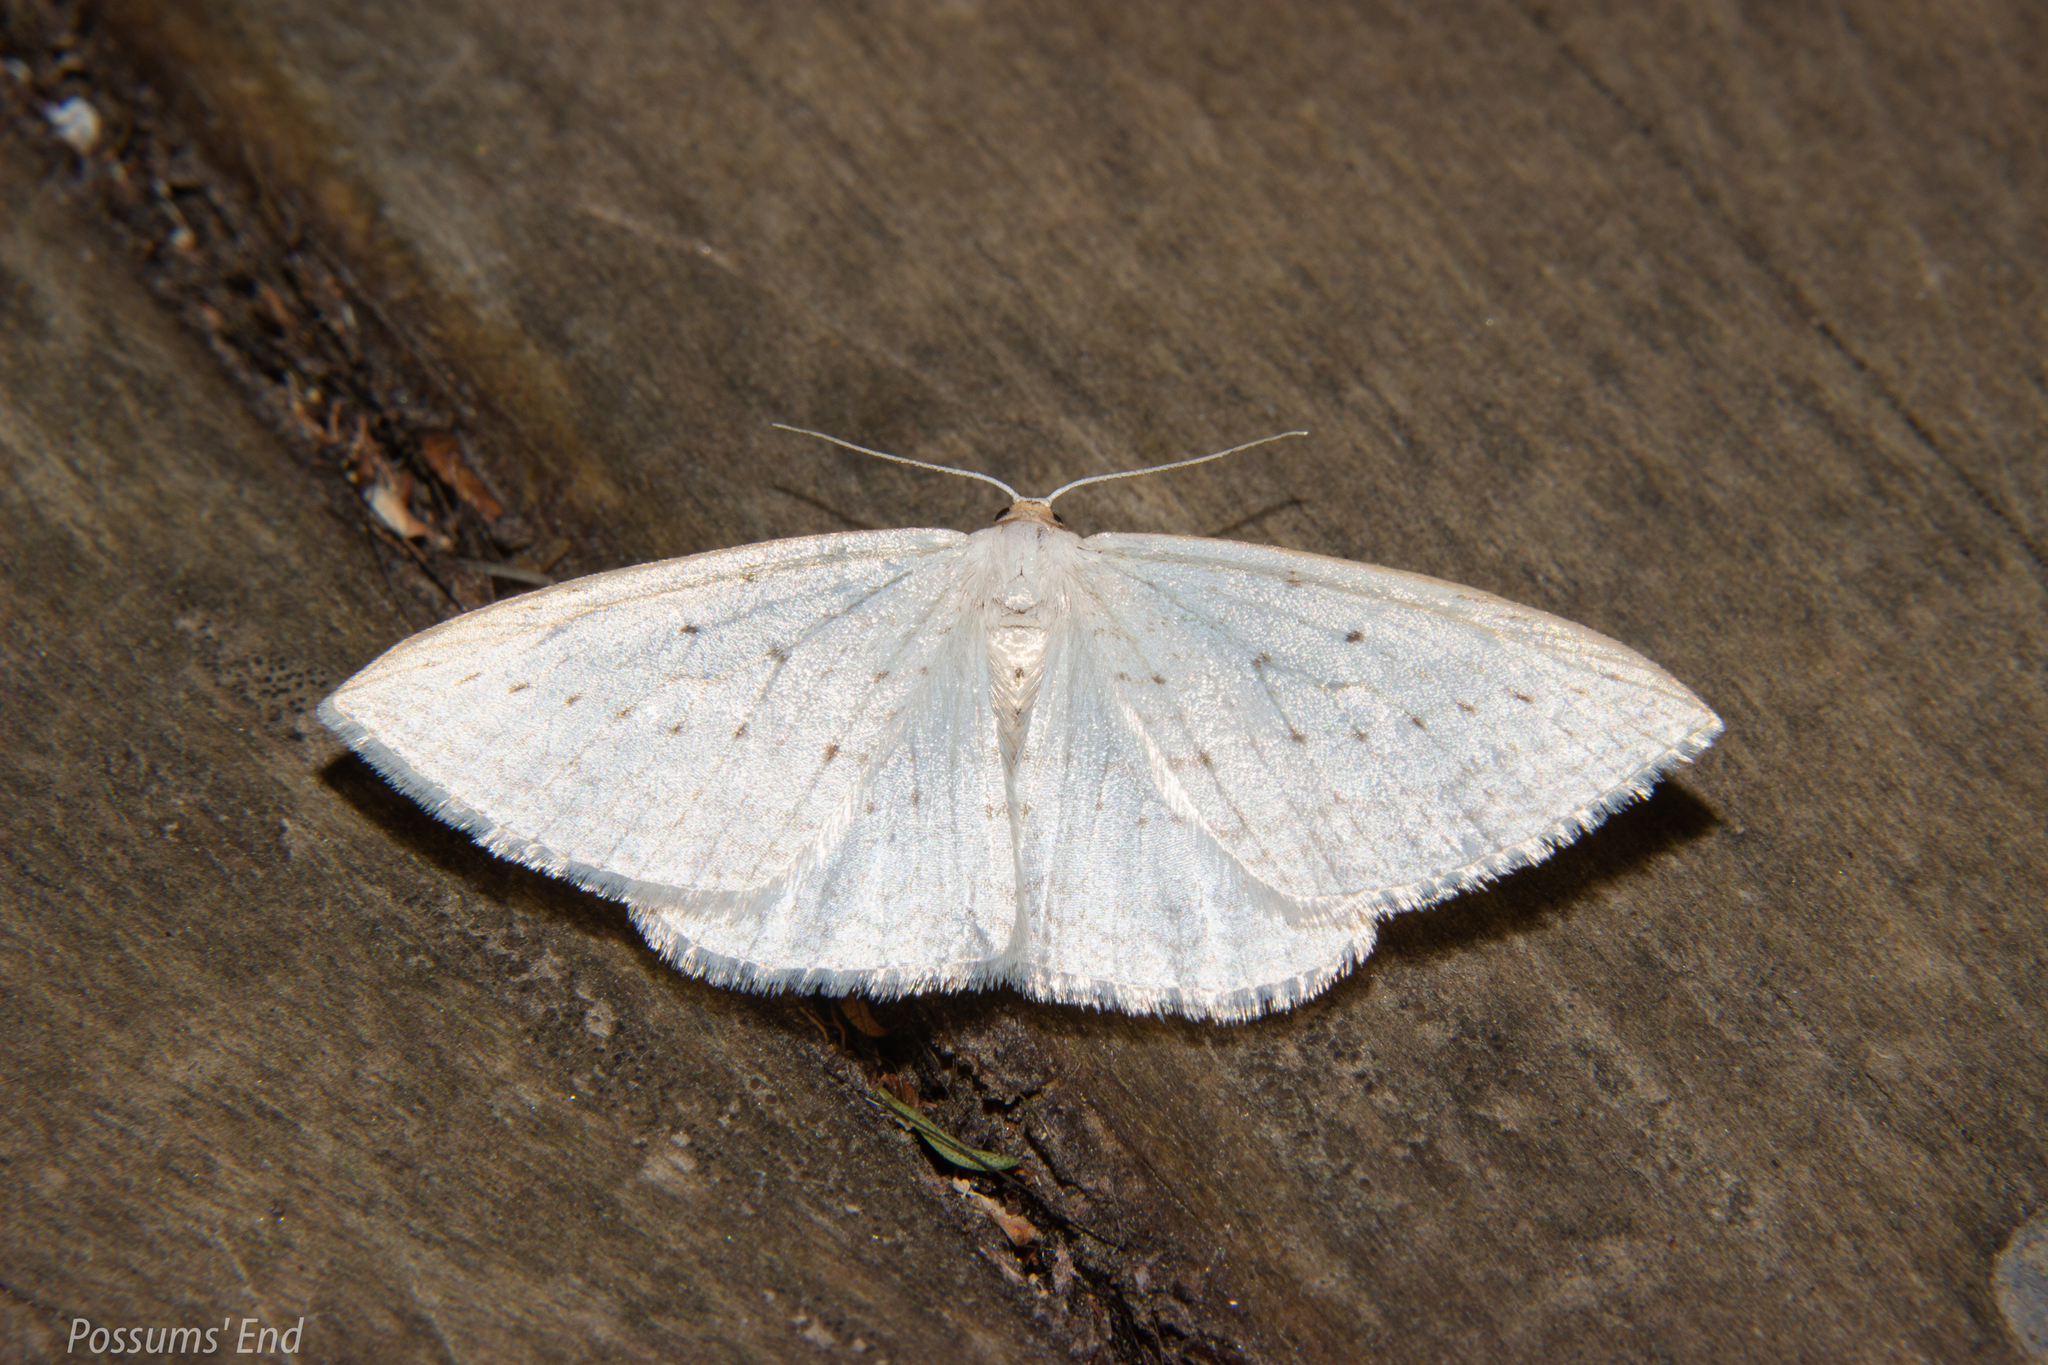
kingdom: Animalia
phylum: Arthropoda
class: Insecta
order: Lepidoptera
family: Geometridae
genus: Orthoclydon
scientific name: Orthoclydon praefectata
